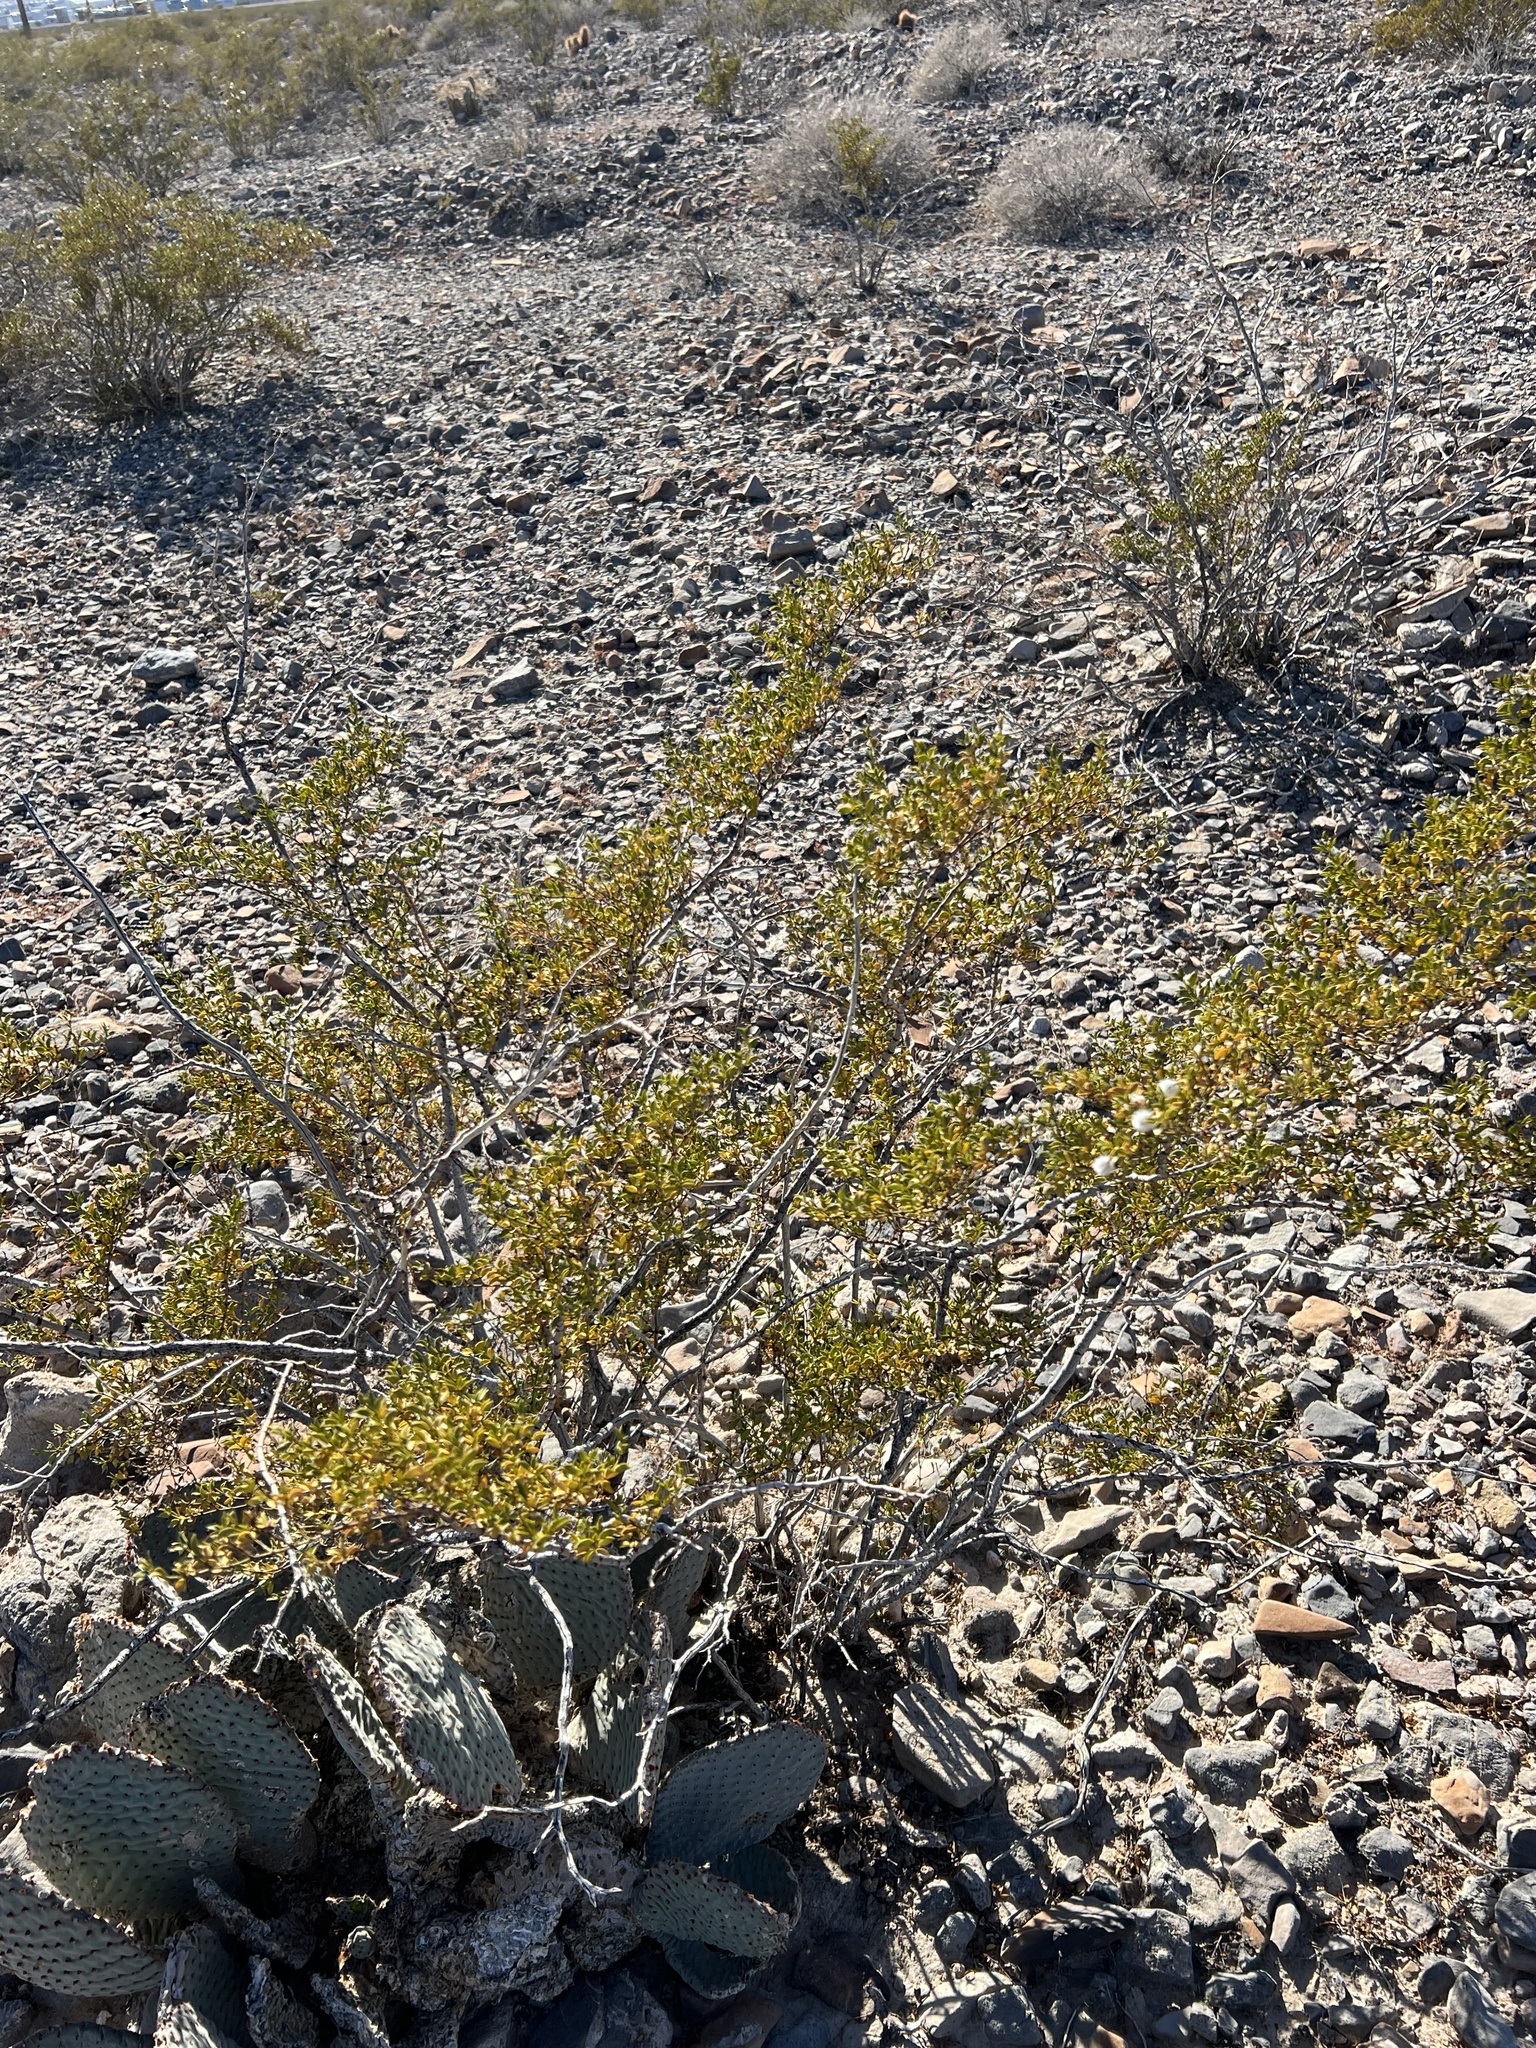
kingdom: Plantae
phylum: Tracheophyta
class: Magnoliopsida
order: Zygophyllales
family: Zygophyllaceae
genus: Larrea
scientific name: Larrea tridentata
